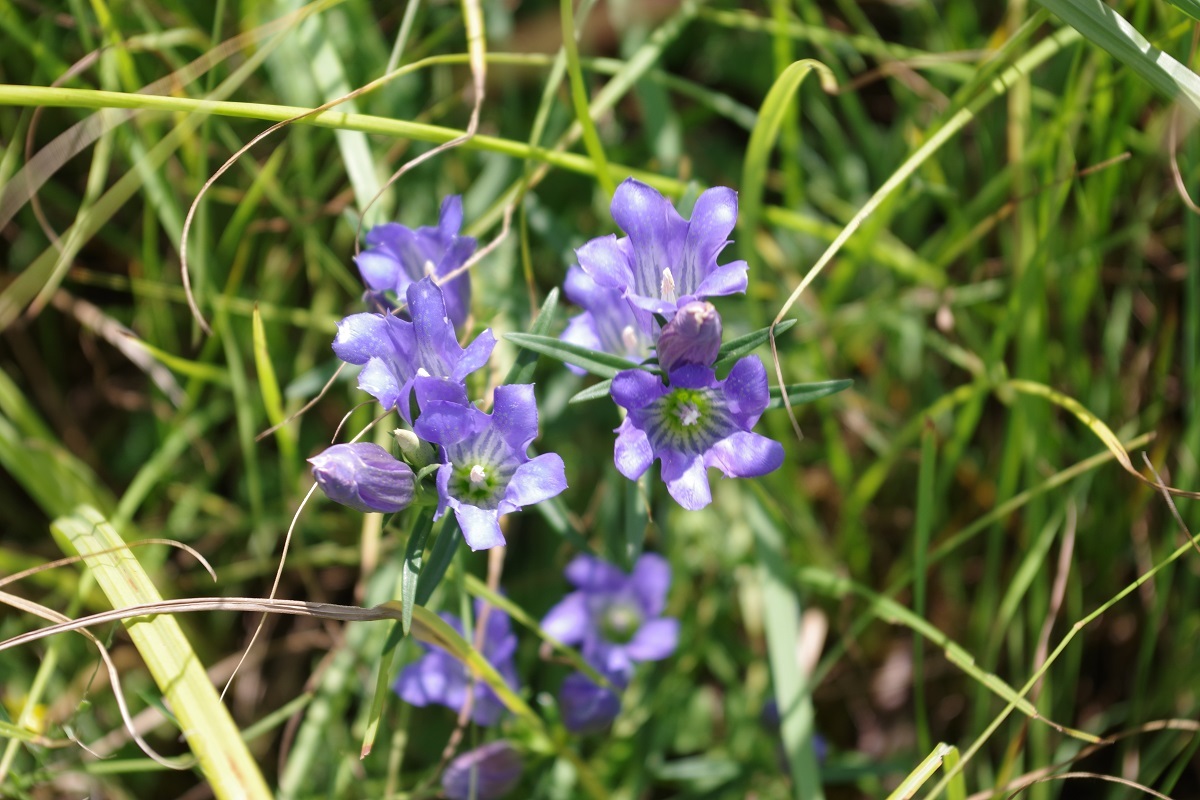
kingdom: Plantae
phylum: Tracheophyta
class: Magnoliopsida
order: Gentianales
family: Gentianaceae
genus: Gentiana
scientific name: Gentiana pneumonanthe
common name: Marsh gentian
